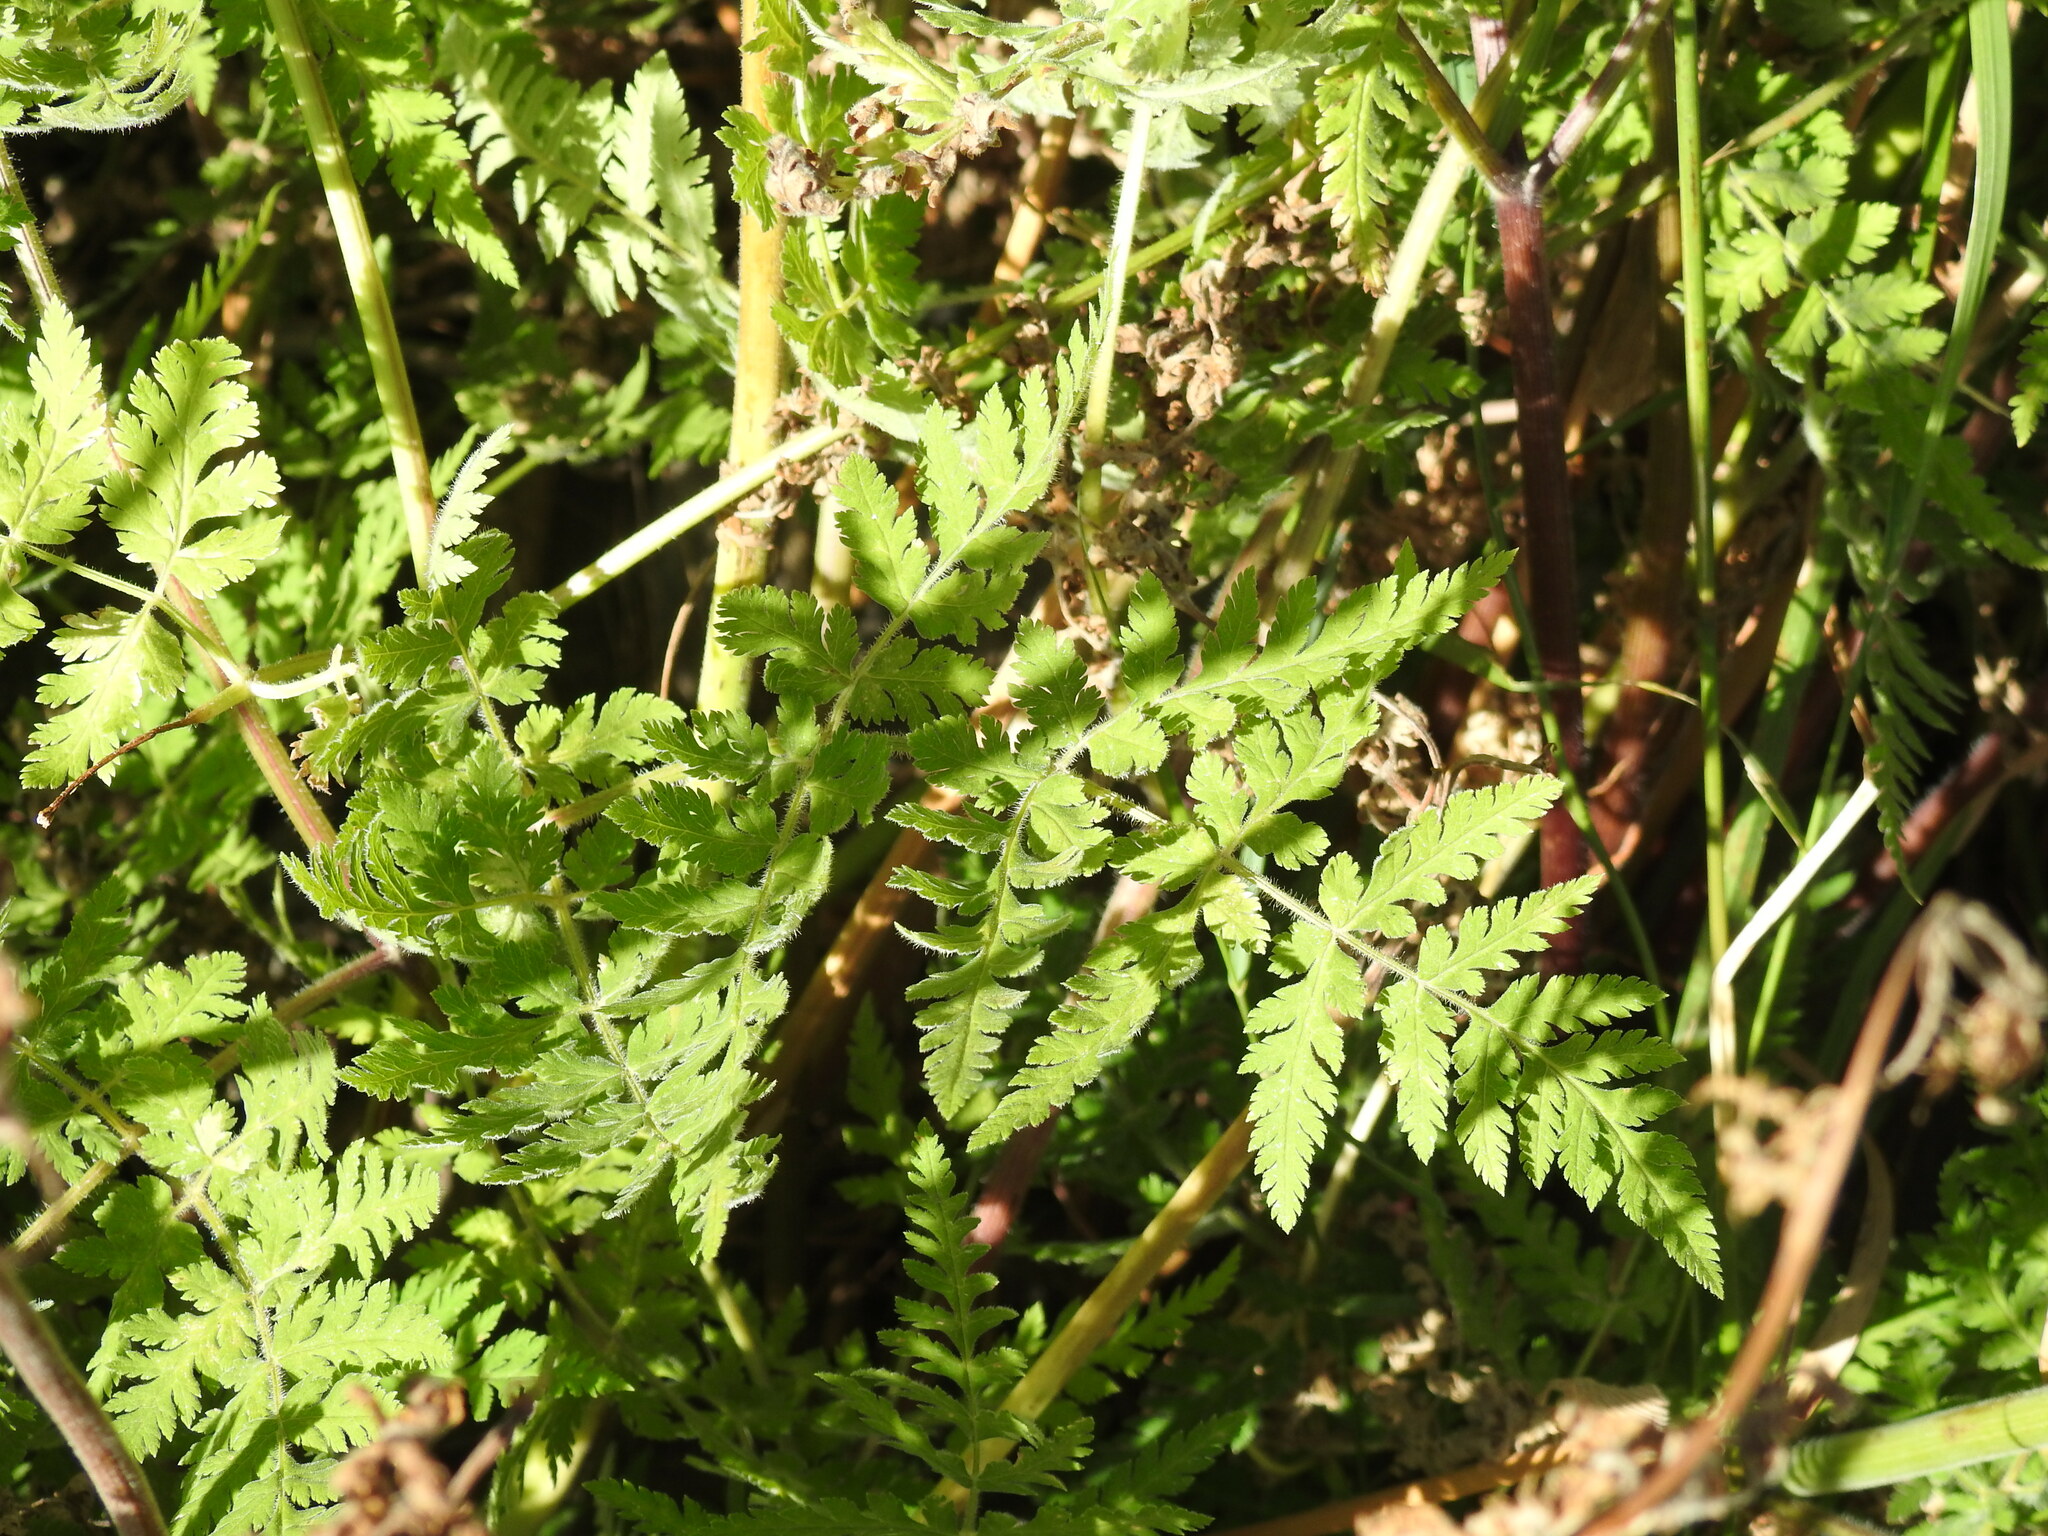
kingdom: Plantae
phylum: Tracheophyta
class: Magnoliopsida
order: Apiales
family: Apiaceae
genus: Myrrhis
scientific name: Myrrhis odorata
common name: Sweet cicely
